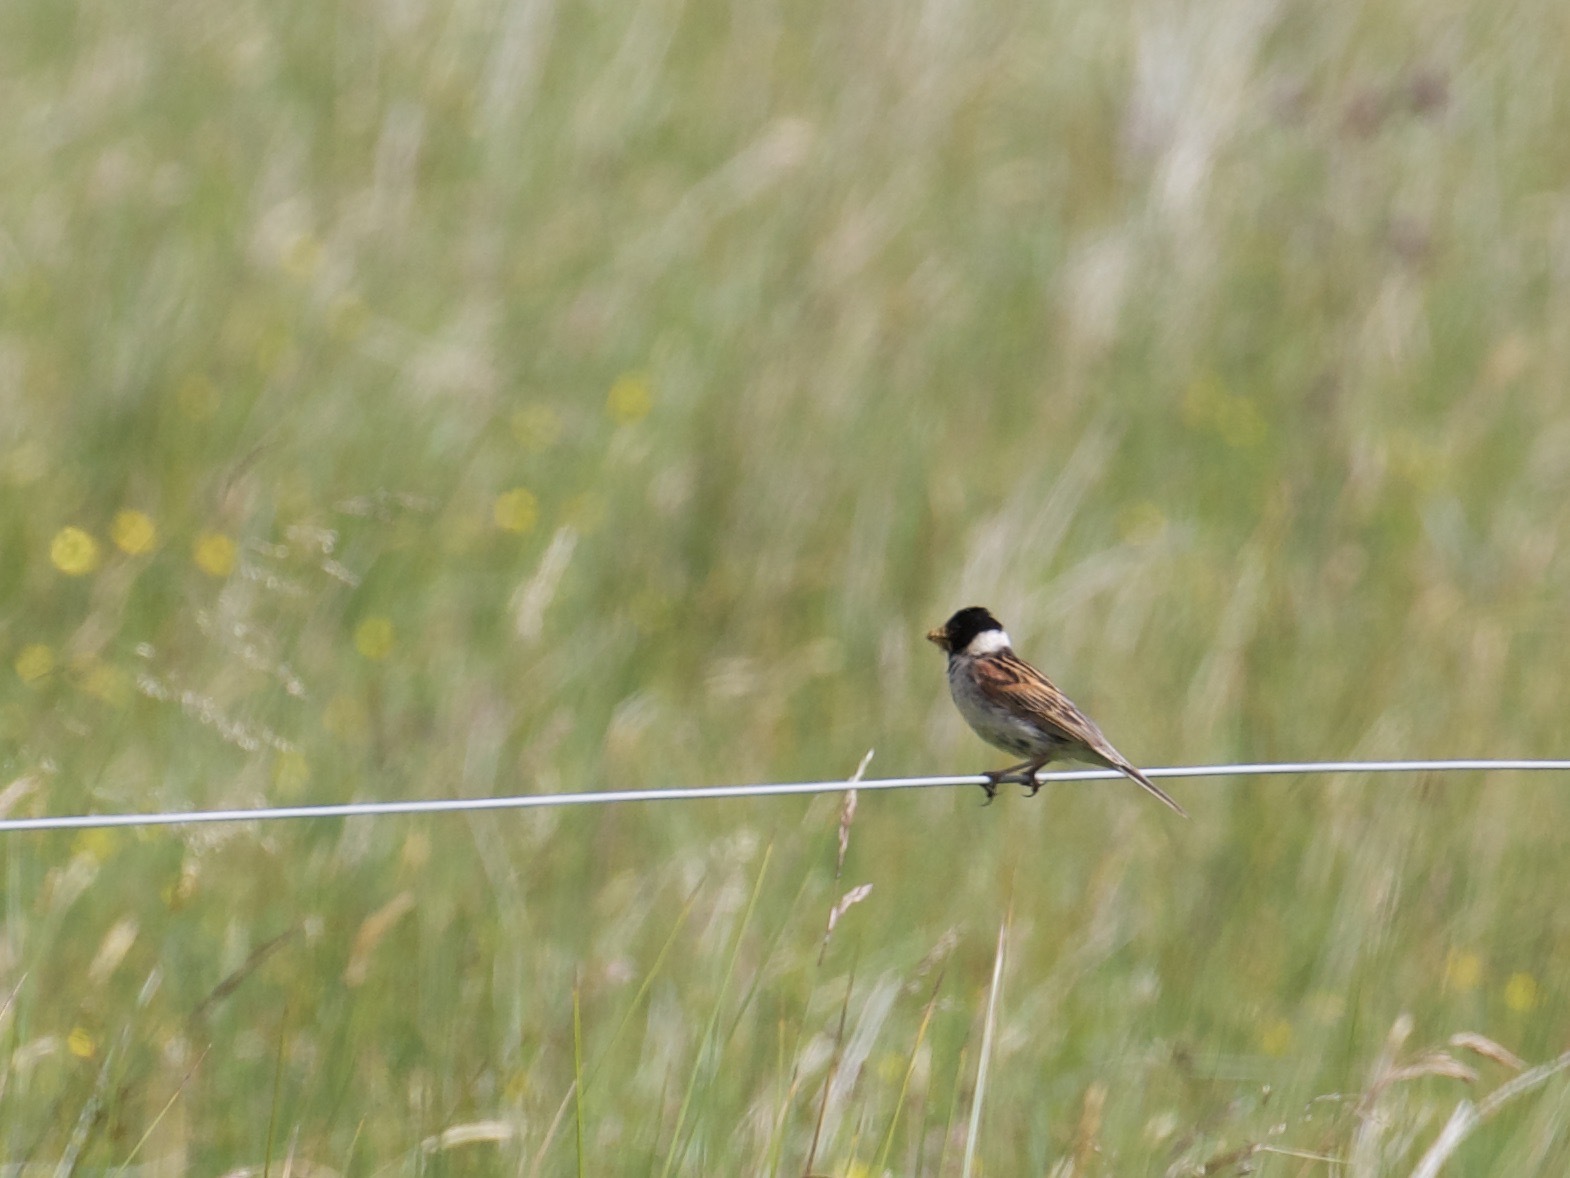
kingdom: Animalia
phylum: Chordata
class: Aves
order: Passeriformes
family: Emberizidae
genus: Emberiza
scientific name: Emberiza schoeniclus
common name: Reed bunting
